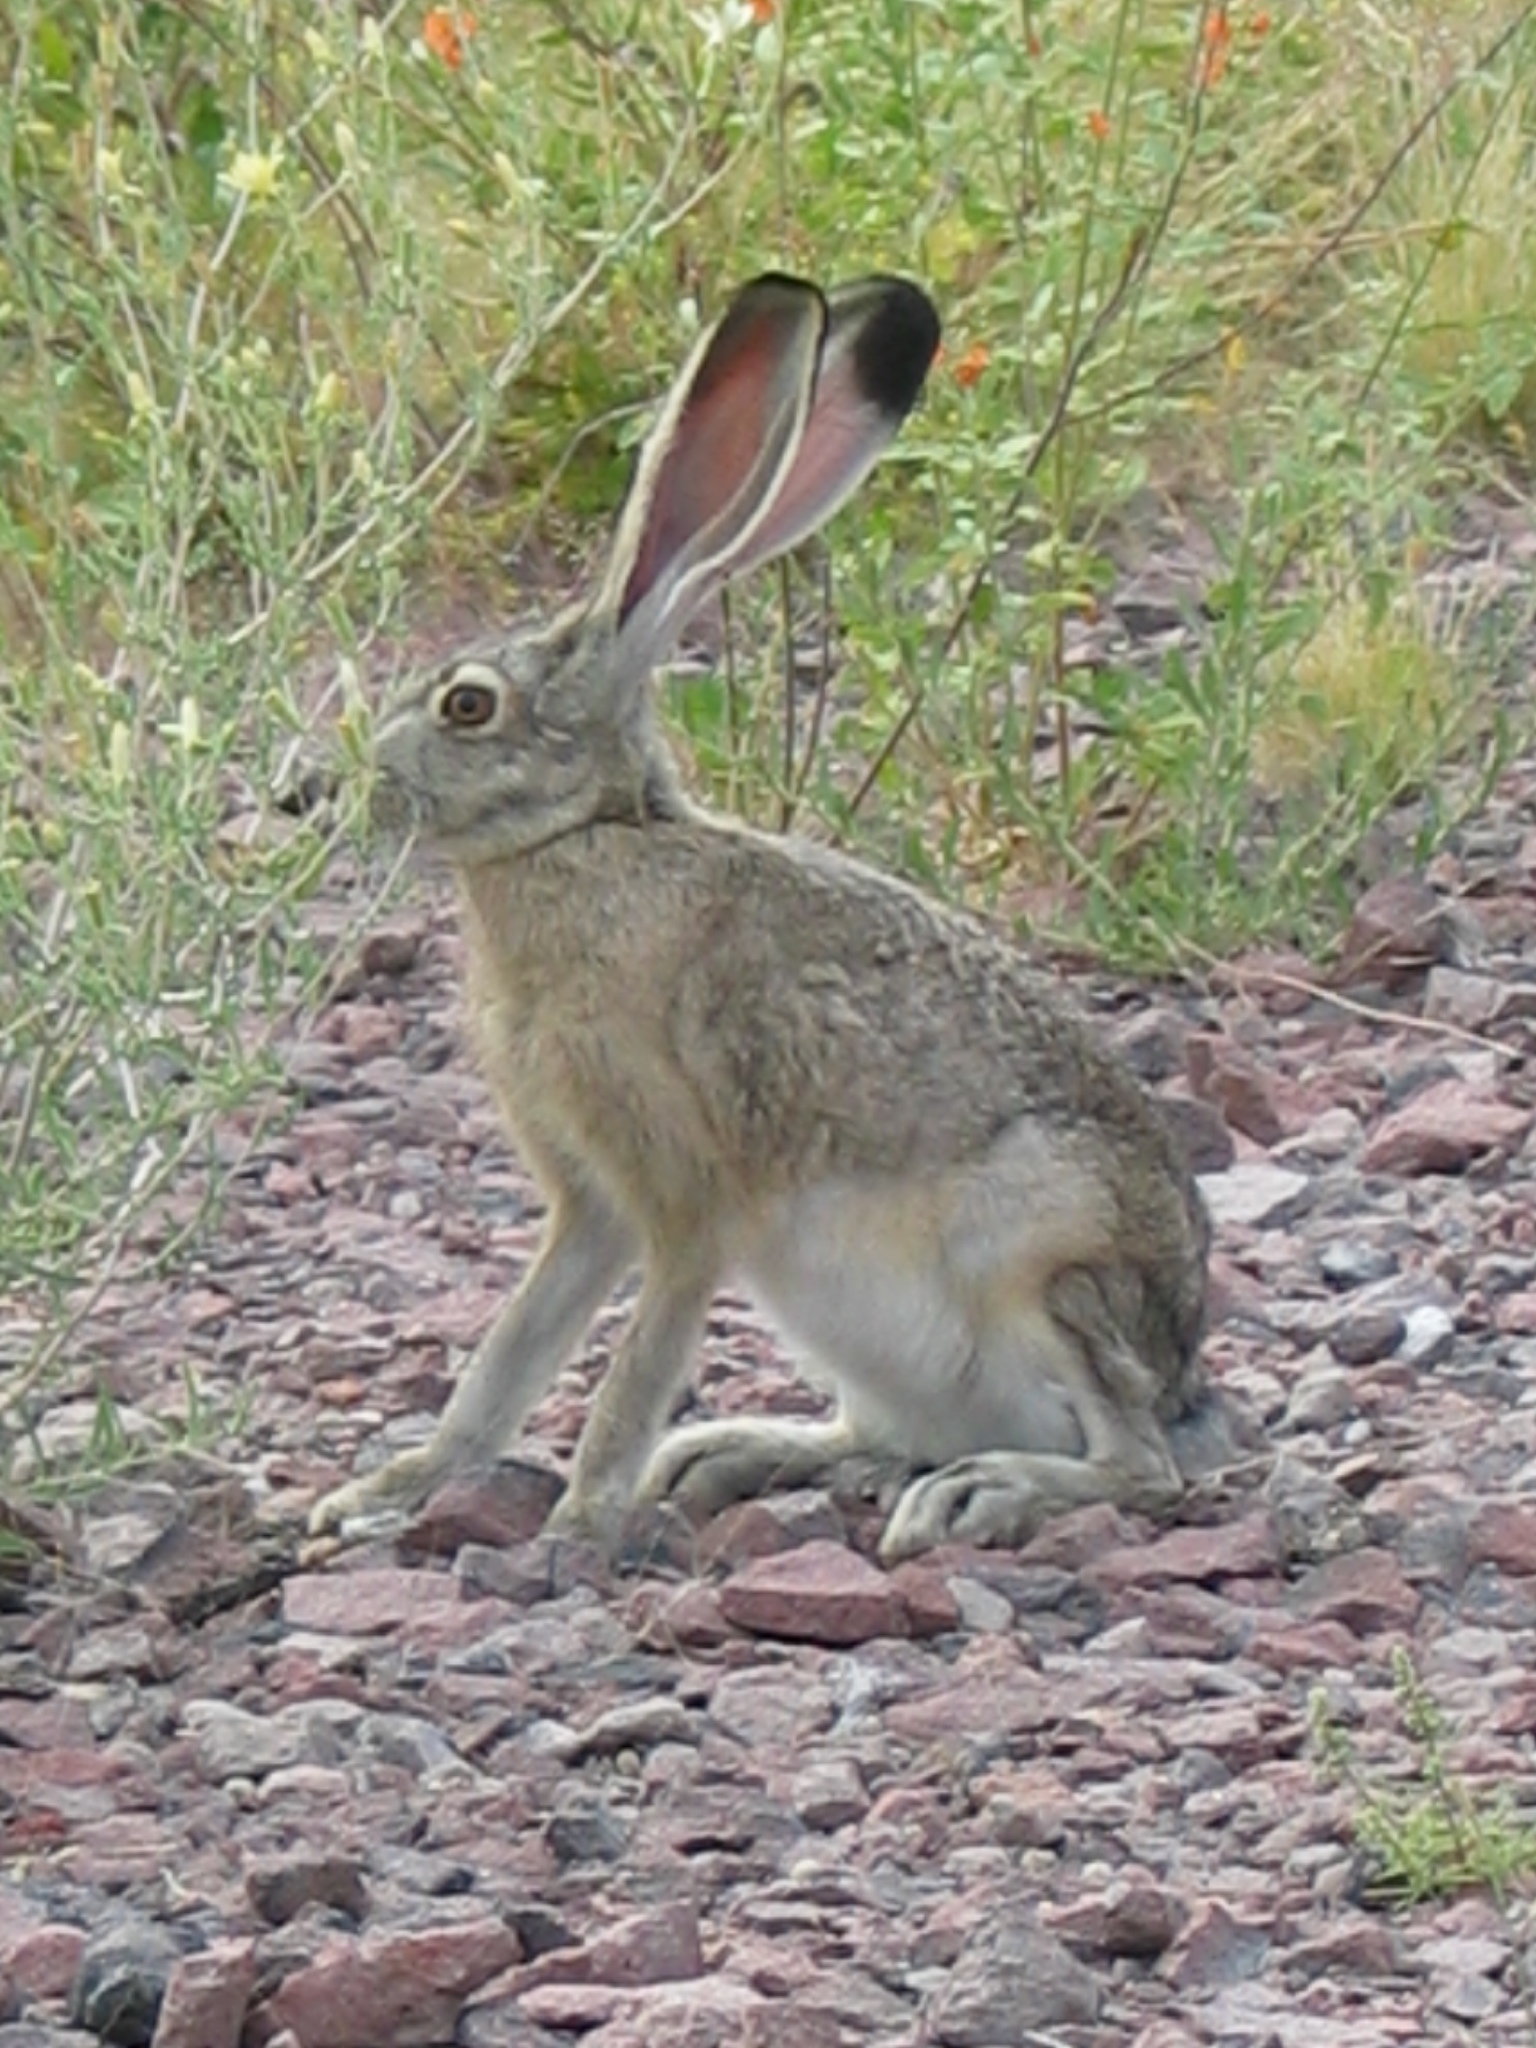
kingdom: Animalia
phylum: Chordata
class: Mammalia
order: Lagomorpha
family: Leporidae
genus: Lepus
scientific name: Lepus californicus
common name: Black-tailed jackrabbit
